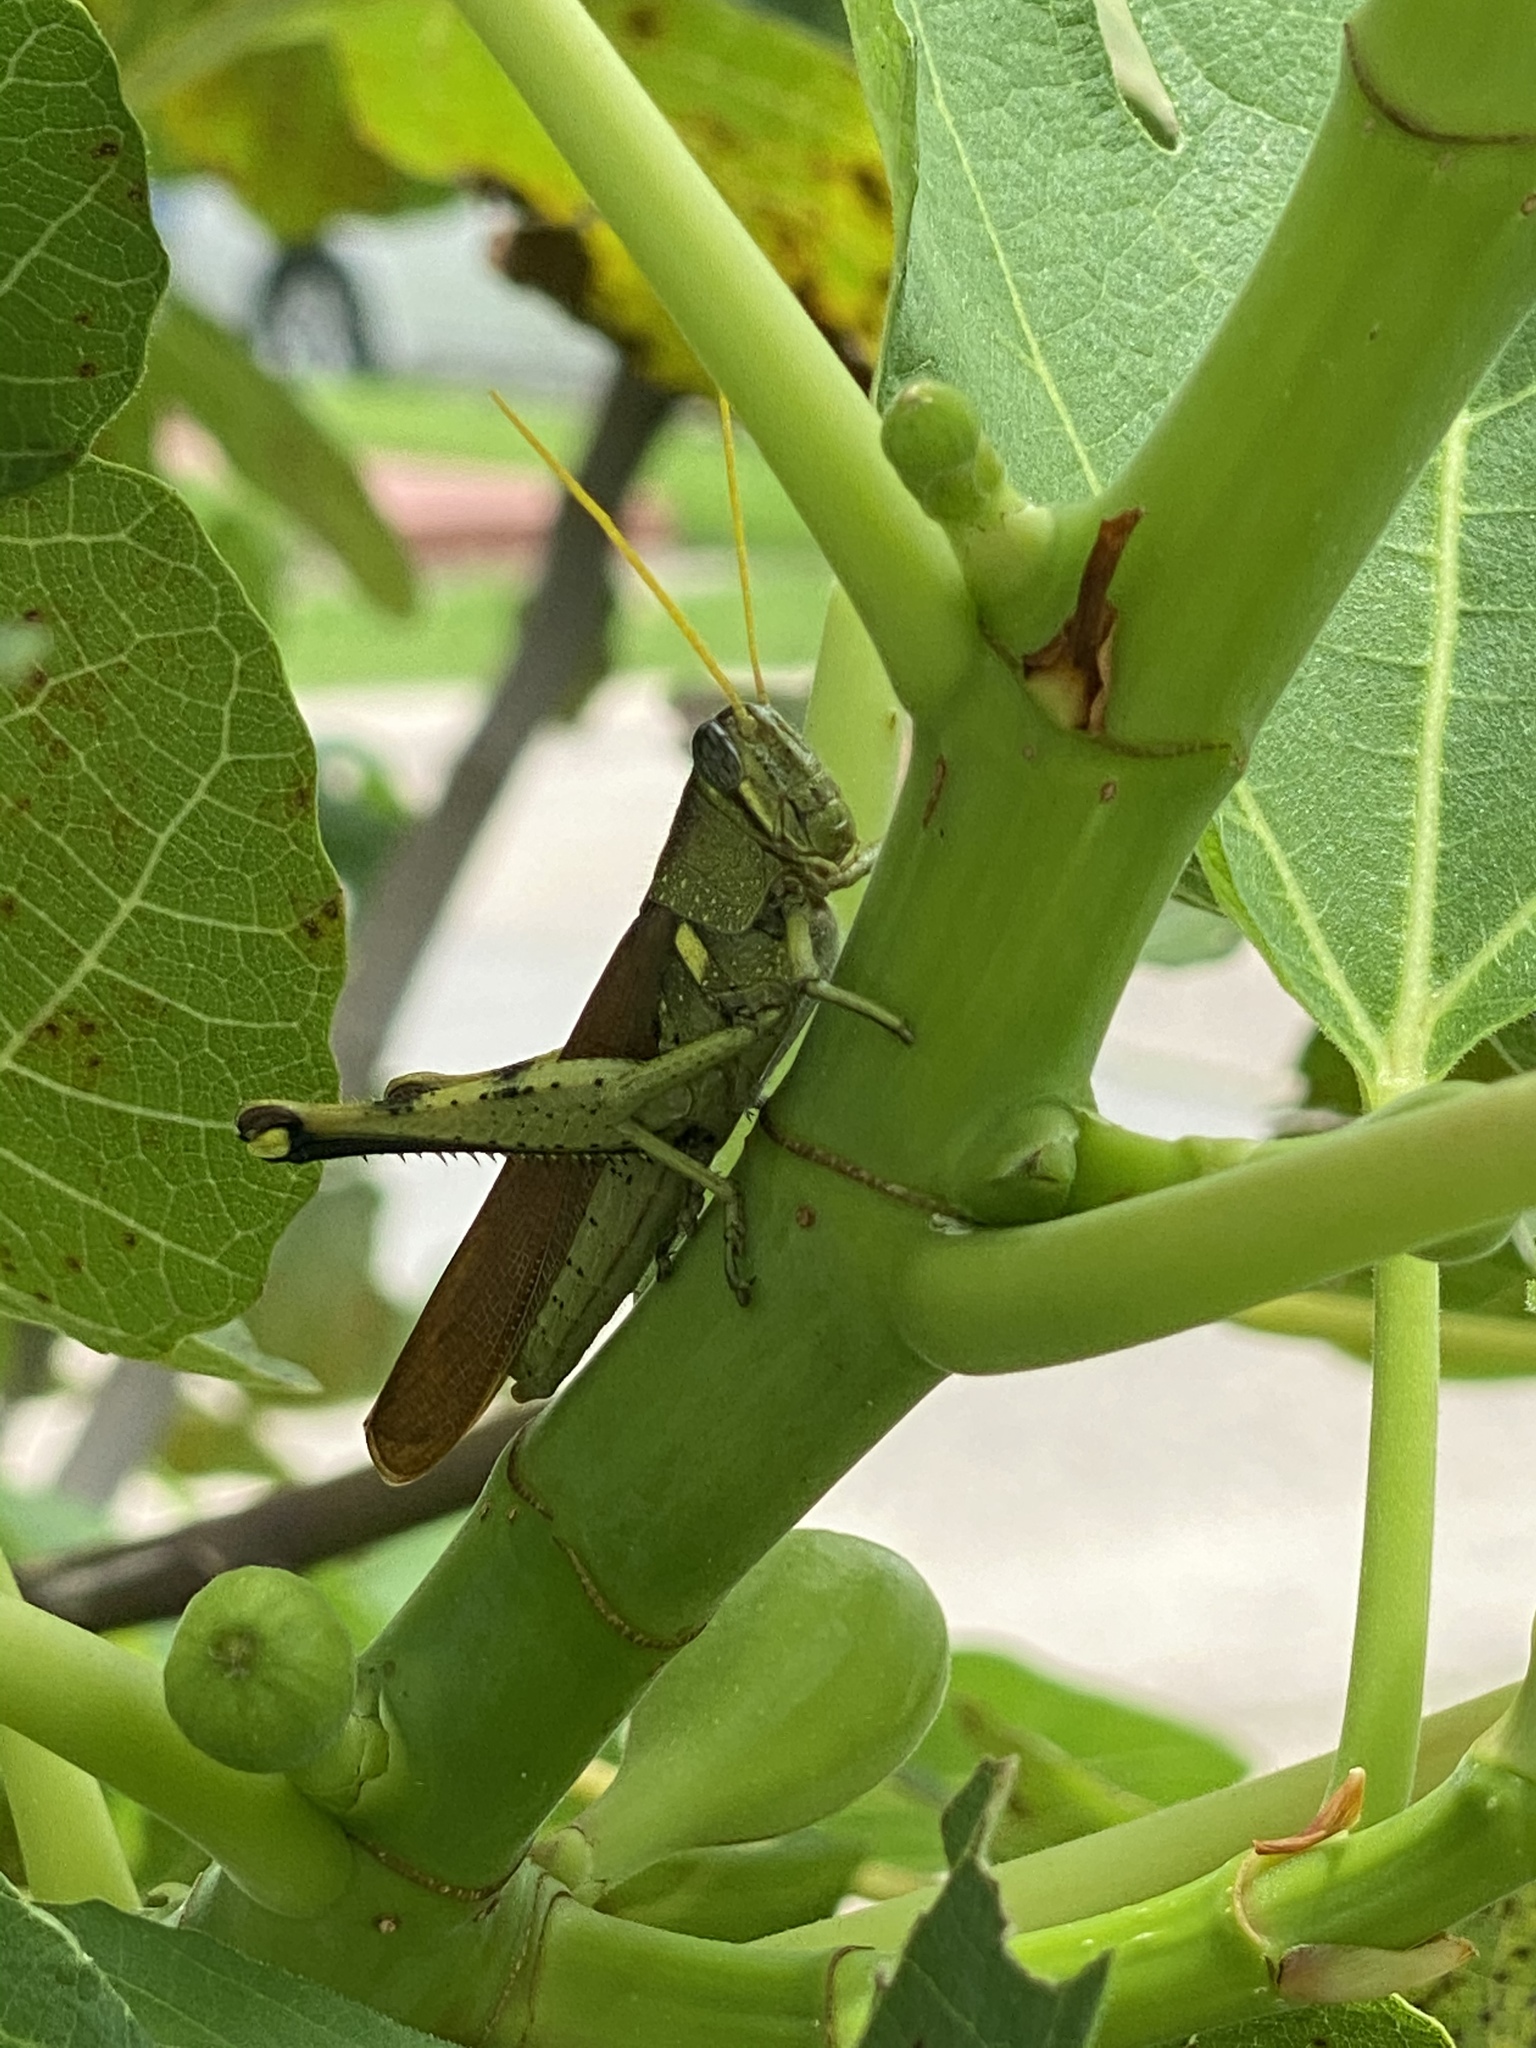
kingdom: Animalia
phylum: Arthropoda
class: Insecta
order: Orthoptera
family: Acrididae
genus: Schistocerca
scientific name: Schistocerca obscura
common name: Obscure bird grasshopper
